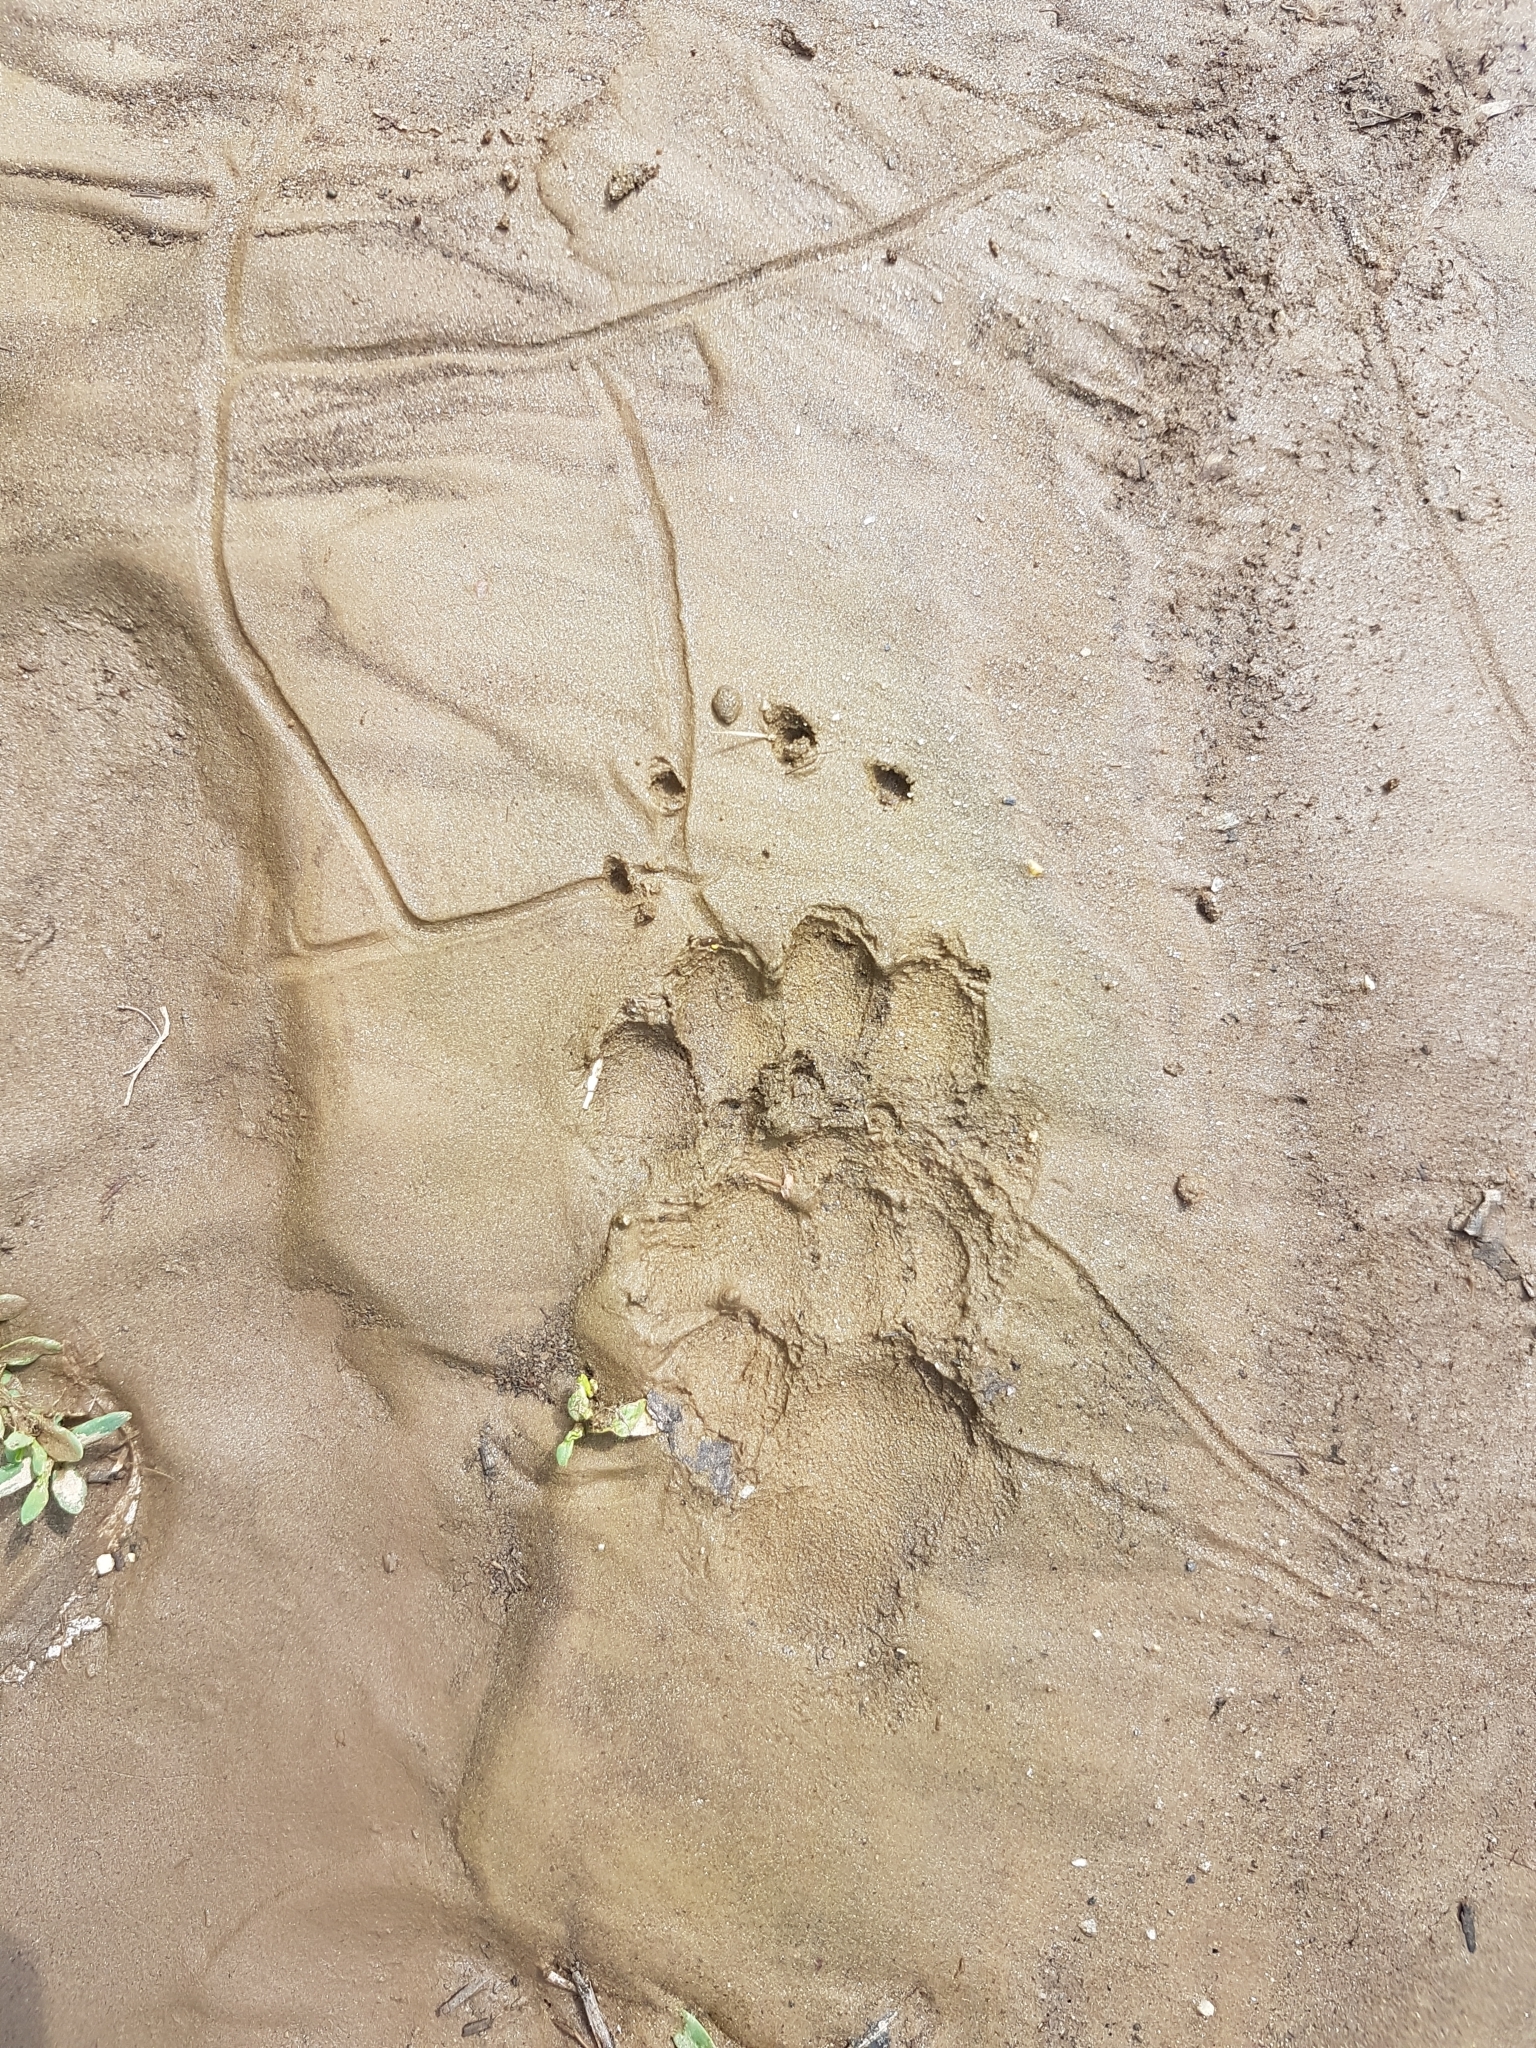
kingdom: Animalia
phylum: Chordata
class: Mammalia
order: Carnivora
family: Mustelidae
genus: Meles
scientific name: Meles meles
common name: Eurasian badger
